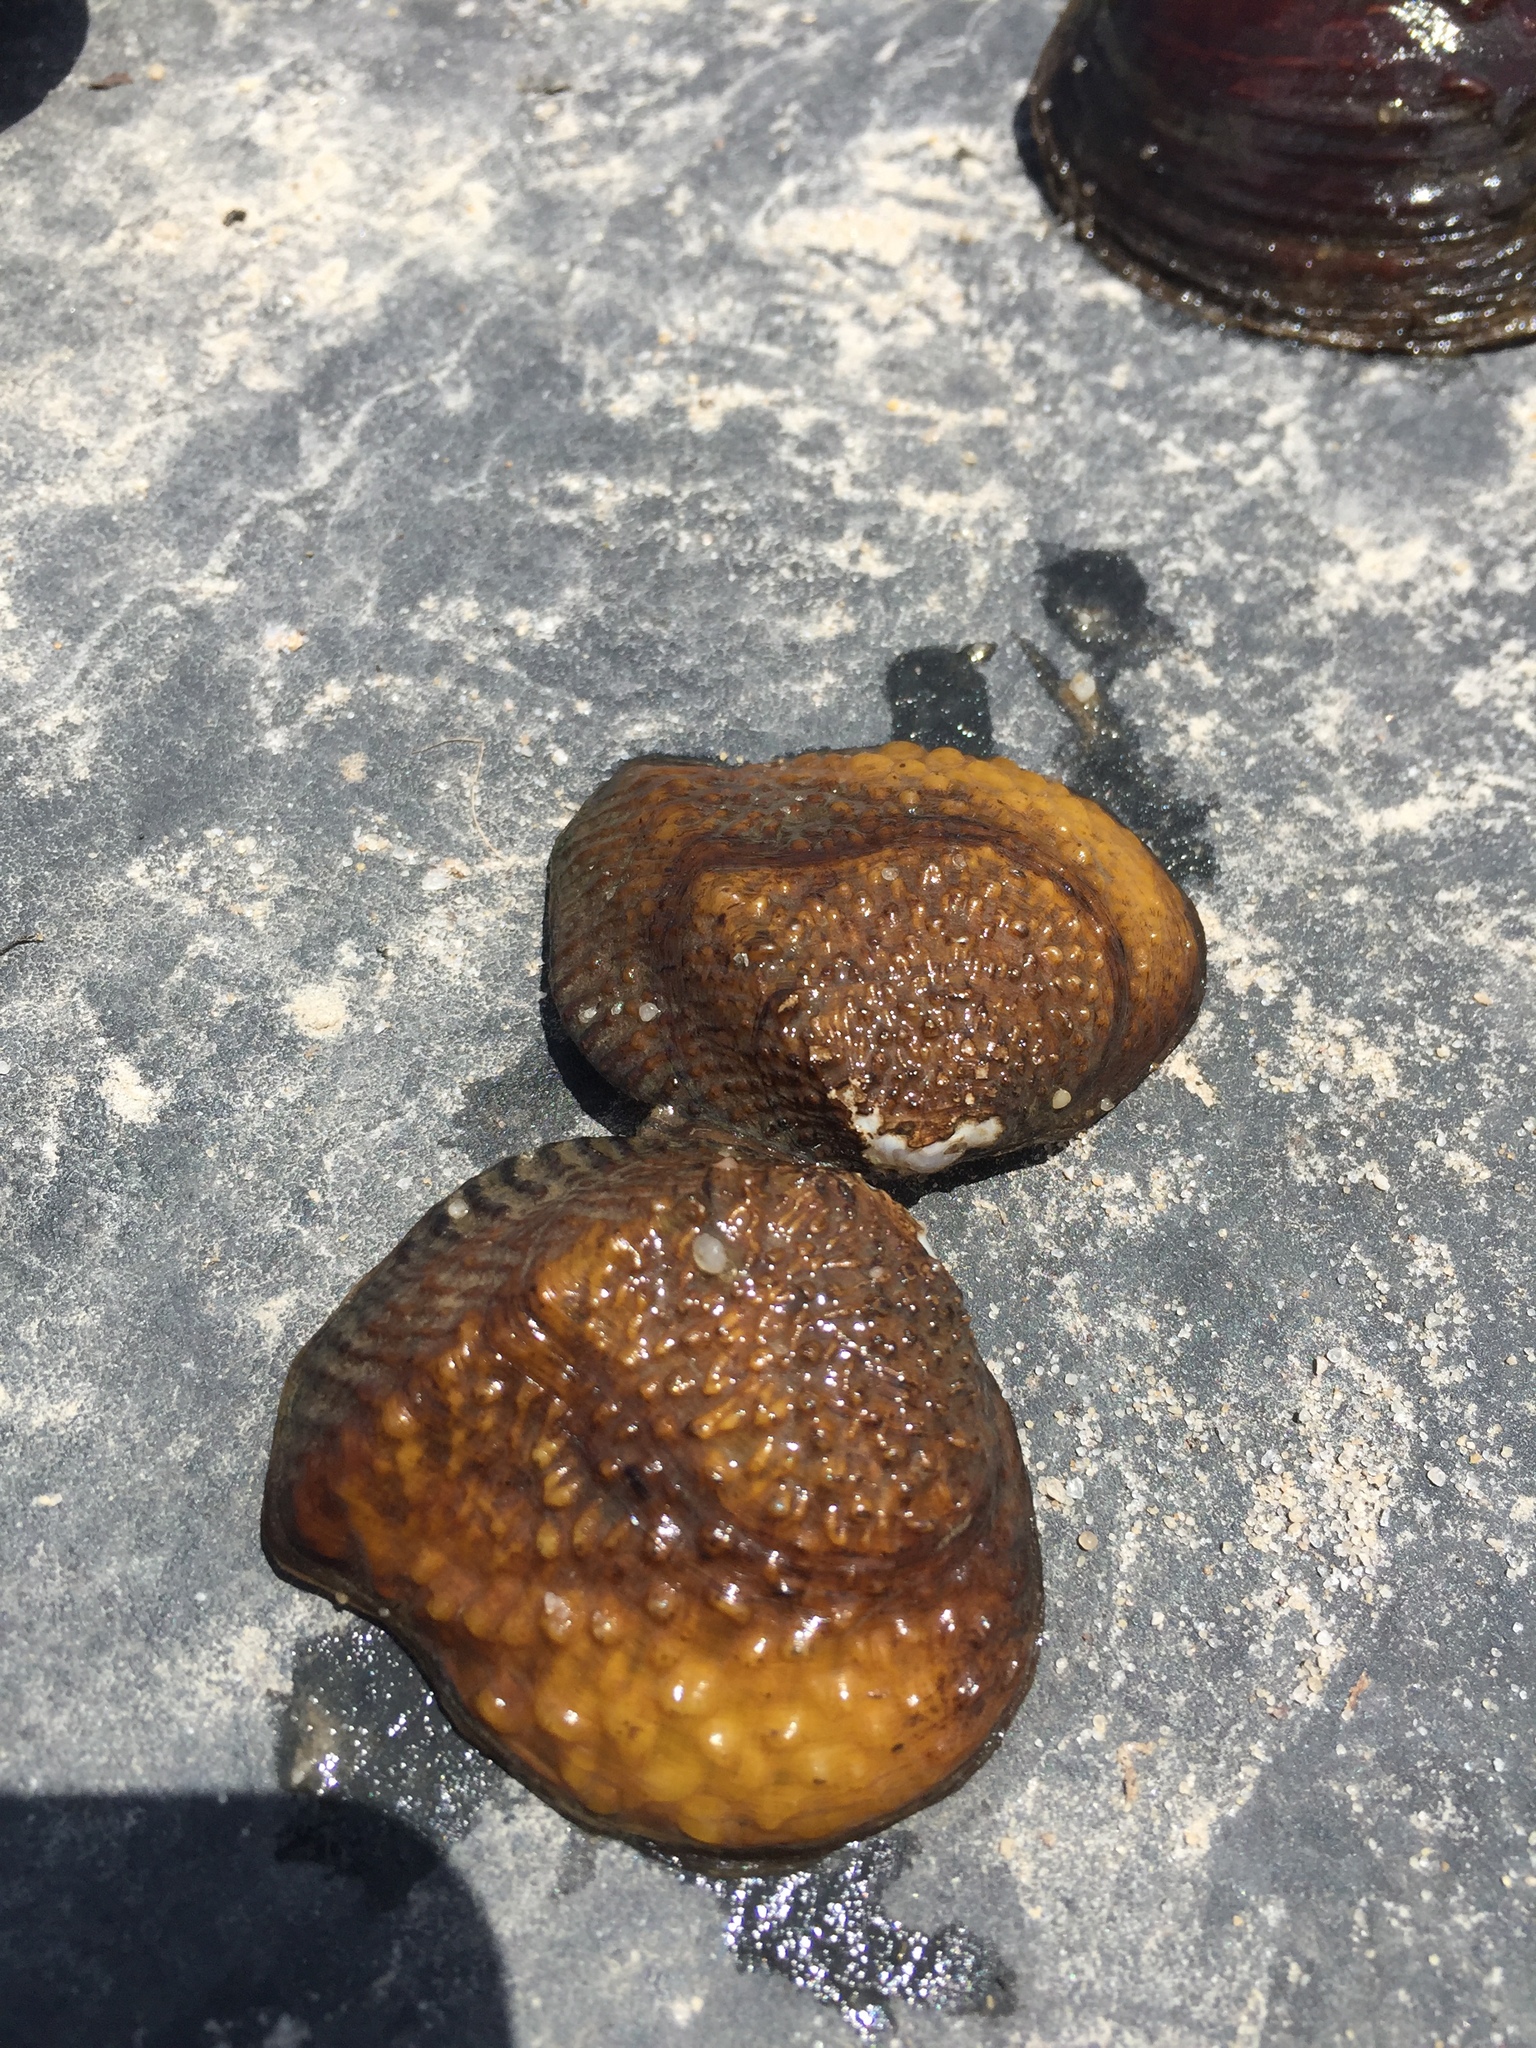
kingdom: Animalia
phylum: Mollusca
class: Bivalvia
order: Unionida
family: Unionidae
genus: Quadrula
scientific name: Quadrula quadrula
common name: Mapleleaf
